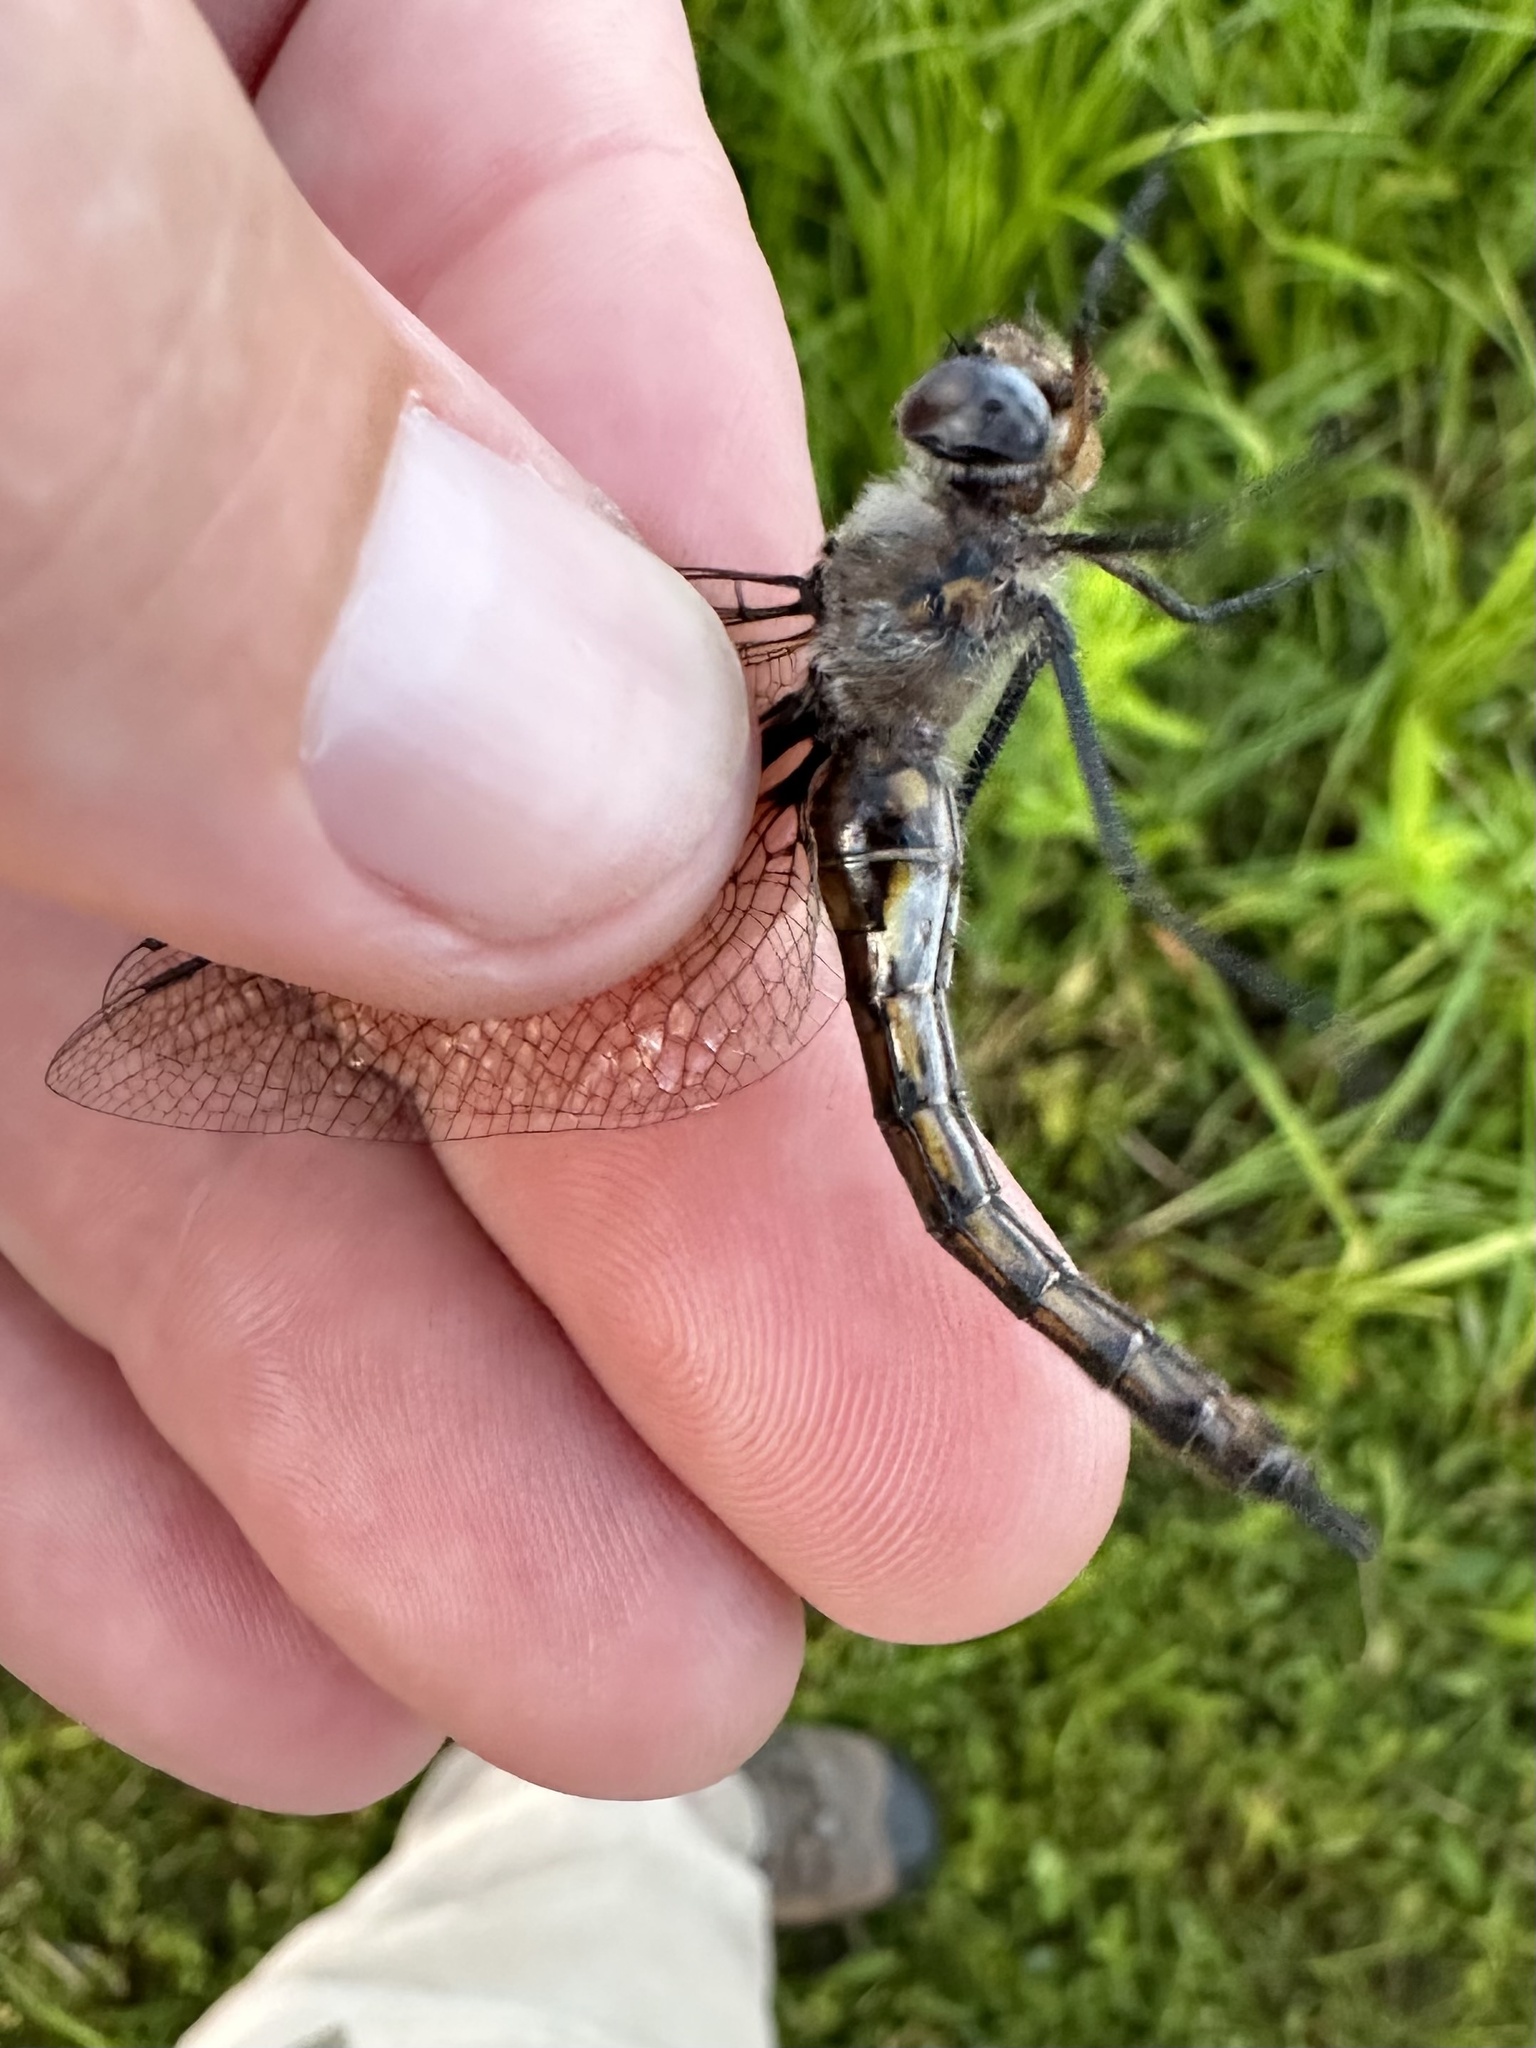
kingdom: Animalia
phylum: Arthropoda
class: Insecta
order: Odonata
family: Corduliidae
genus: Epitheca
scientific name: Epitheca spinigera
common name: Spiny baskettail
